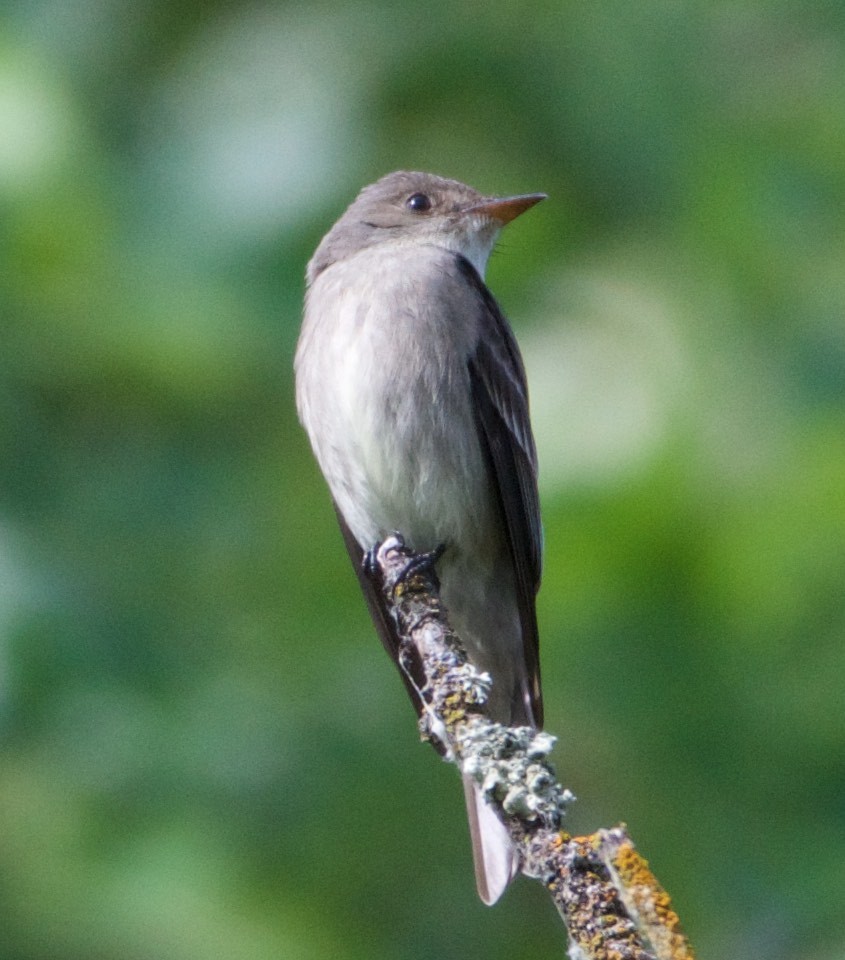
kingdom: Animalia
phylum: Chordata
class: Aves
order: Passeriformes
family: Tyrannidae
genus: Contopus
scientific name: Contopus sordidulus
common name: Western wood-pewee
